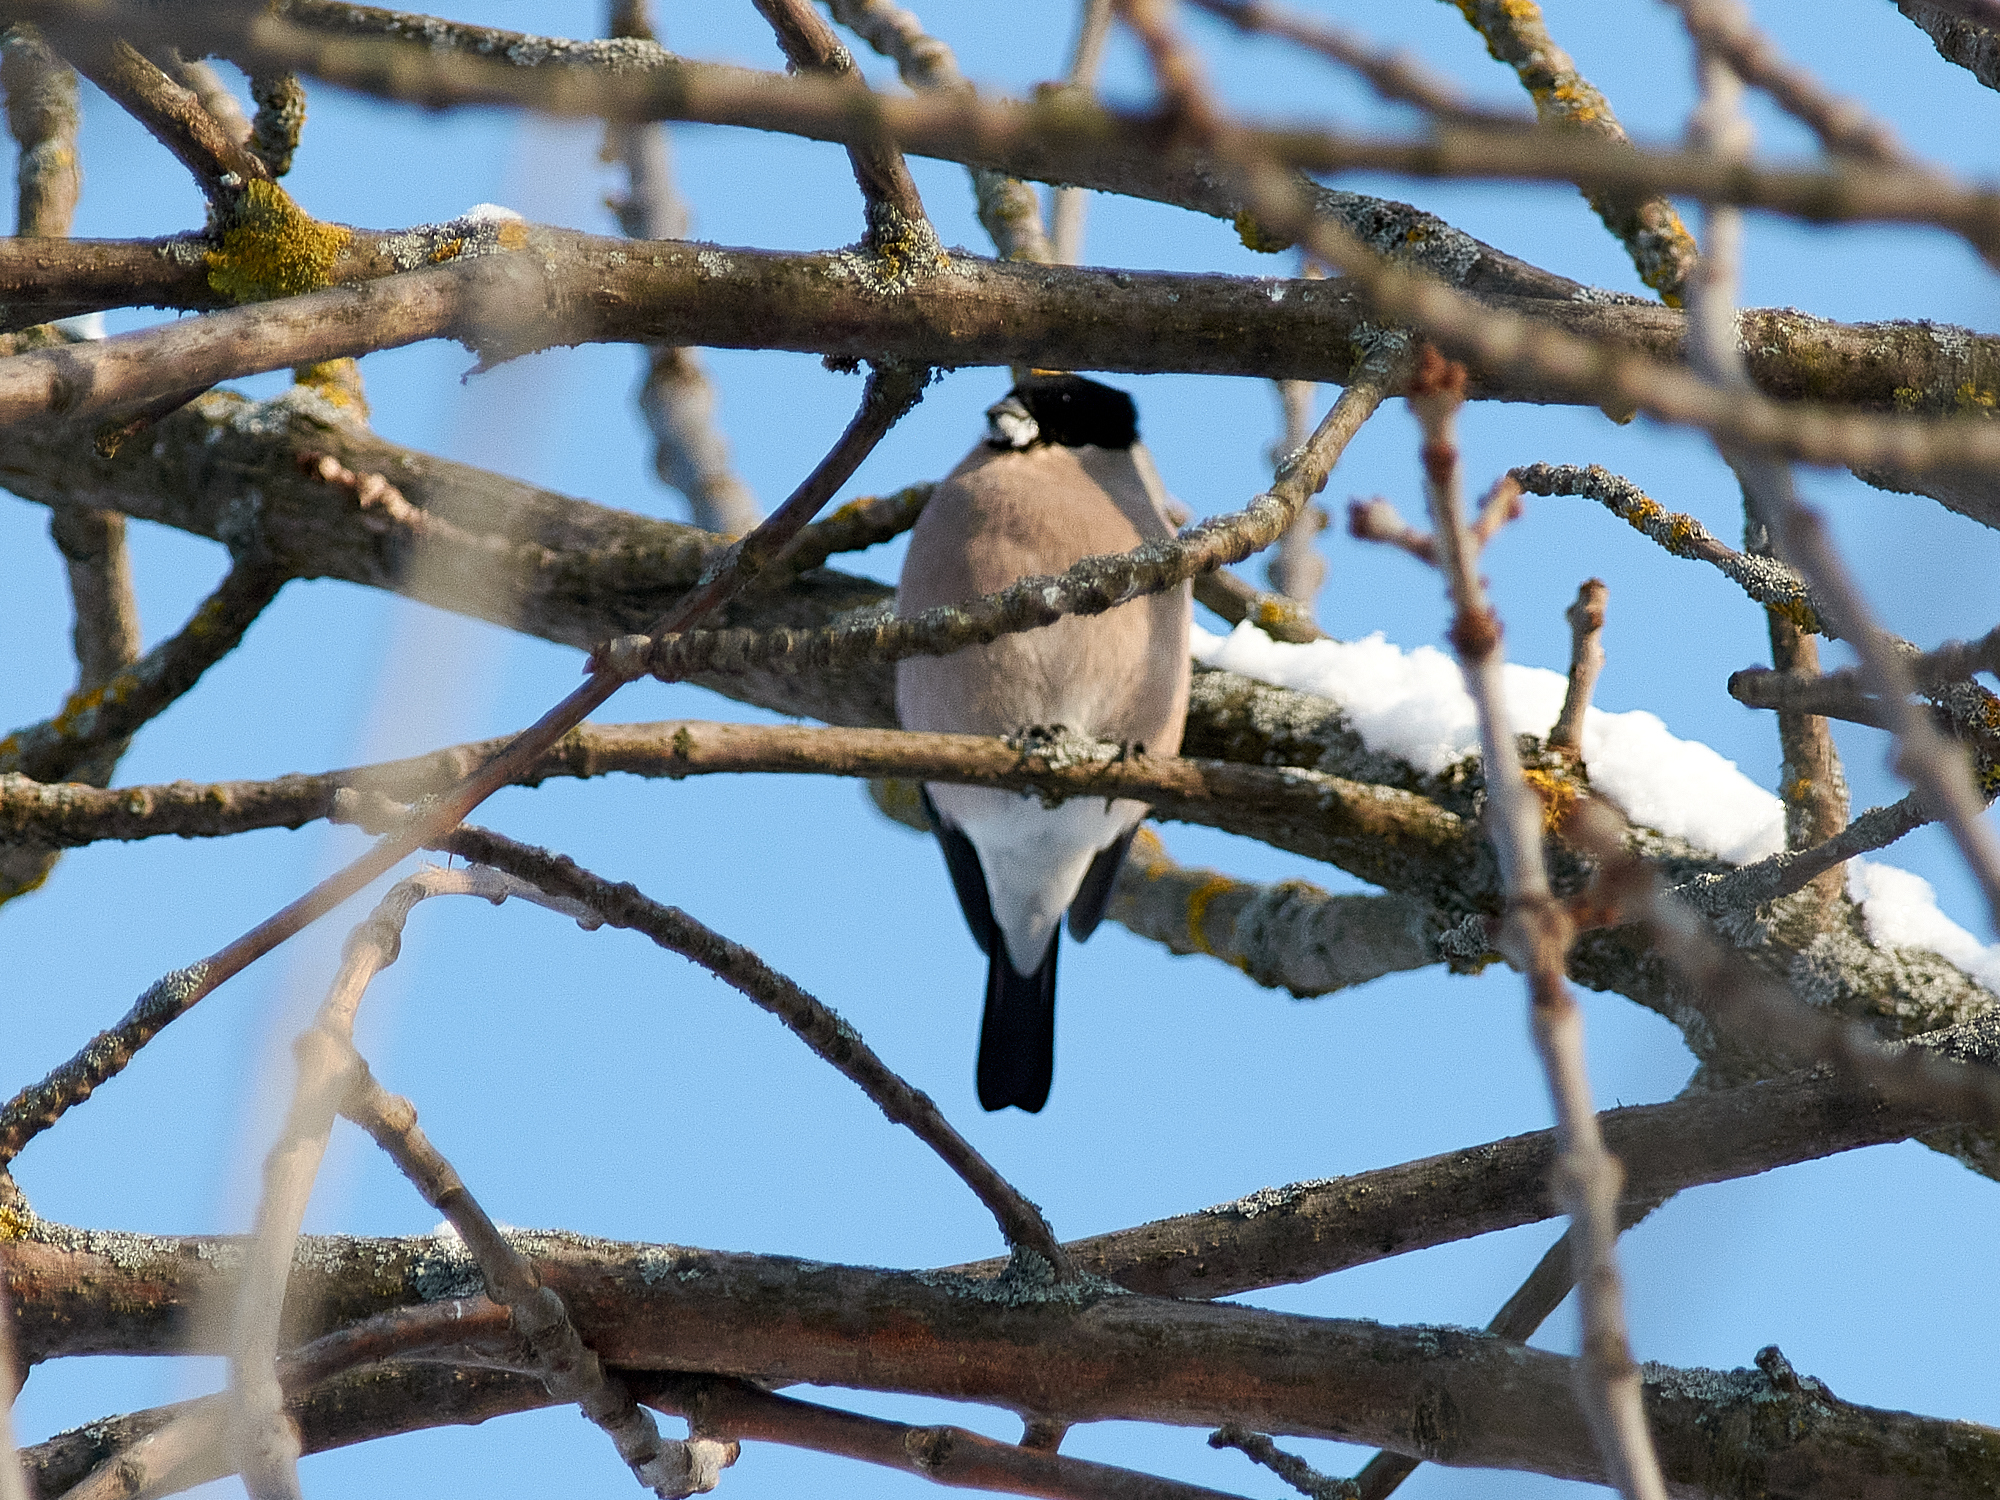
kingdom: Animalia
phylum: Chordata
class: Aves
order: Passeriformes
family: Fringillidae
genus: Pyrrhula
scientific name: Pyrrhula pyrrhula
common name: Eurasian bullfinch
